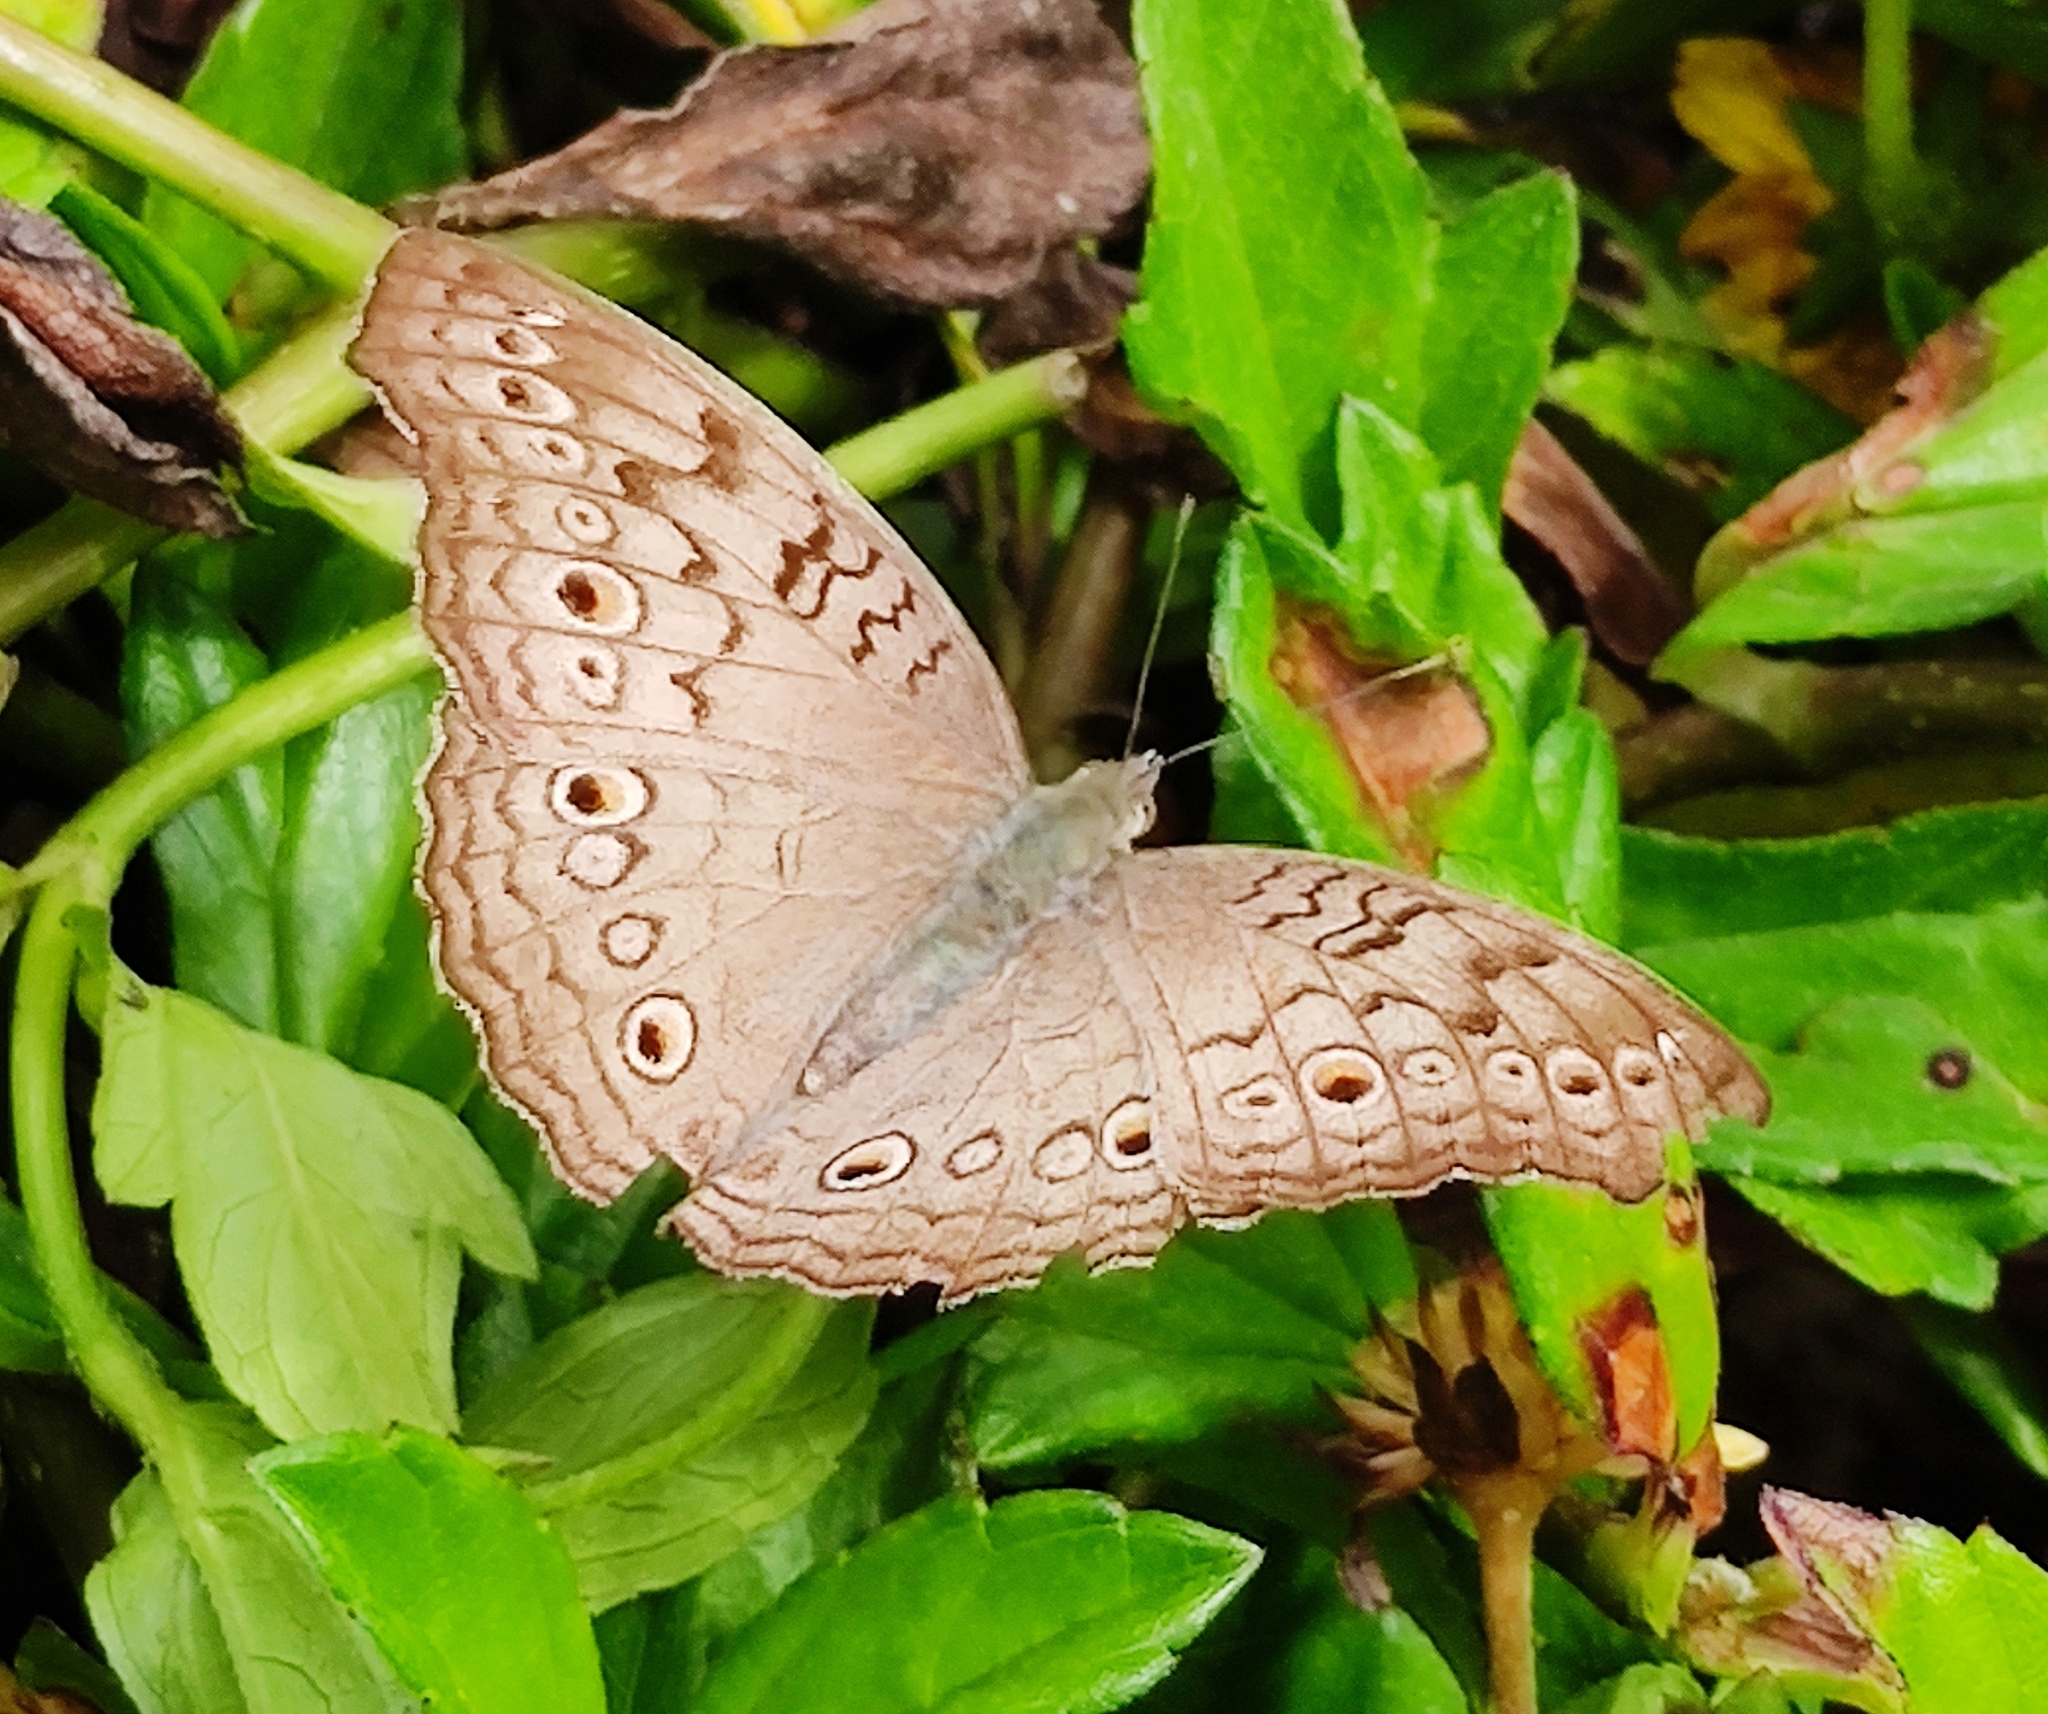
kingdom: Animalia
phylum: Arthropoda
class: Insecta
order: Lepidoptera
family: Nymphalidae
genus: Junonia
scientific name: Junonia atlites
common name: Grey pansy
